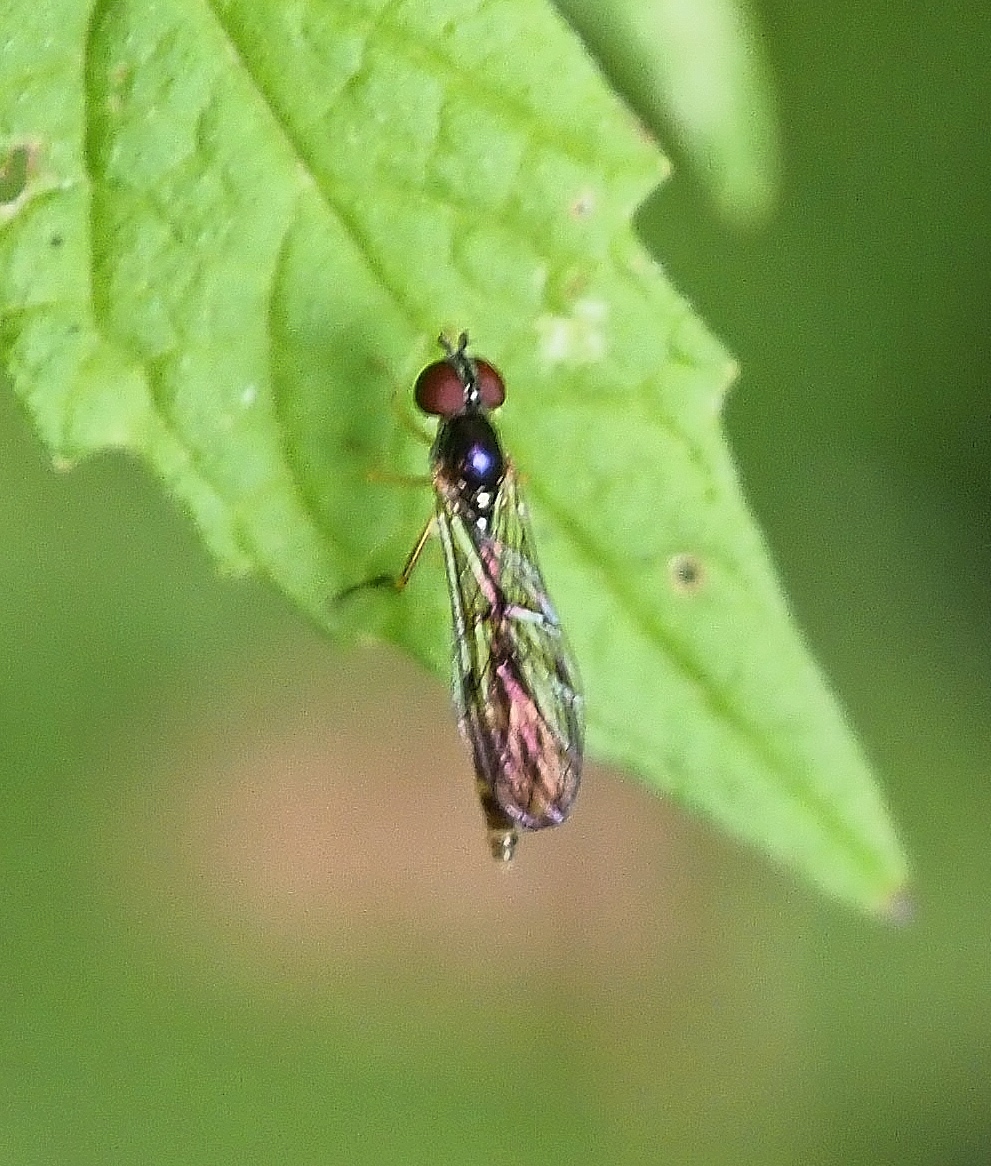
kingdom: Animalia
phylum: Arthropoda
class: Insecta
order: Diptera
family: Syrphidae
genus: Baccha
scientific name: Baccha elongata
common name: Common dainty
